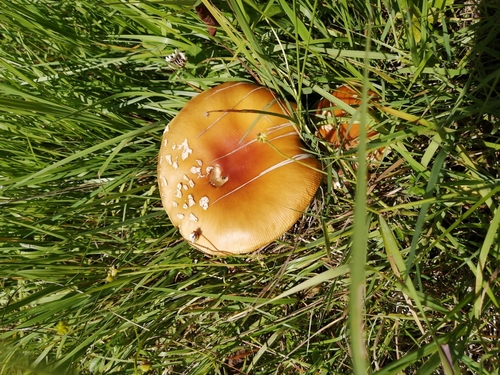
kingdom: Fungi
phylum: Basidiomycota
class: Agaricomycetes
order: Agaricales
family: Amanitaceae
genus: Amanita
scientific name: Amanita regalis
